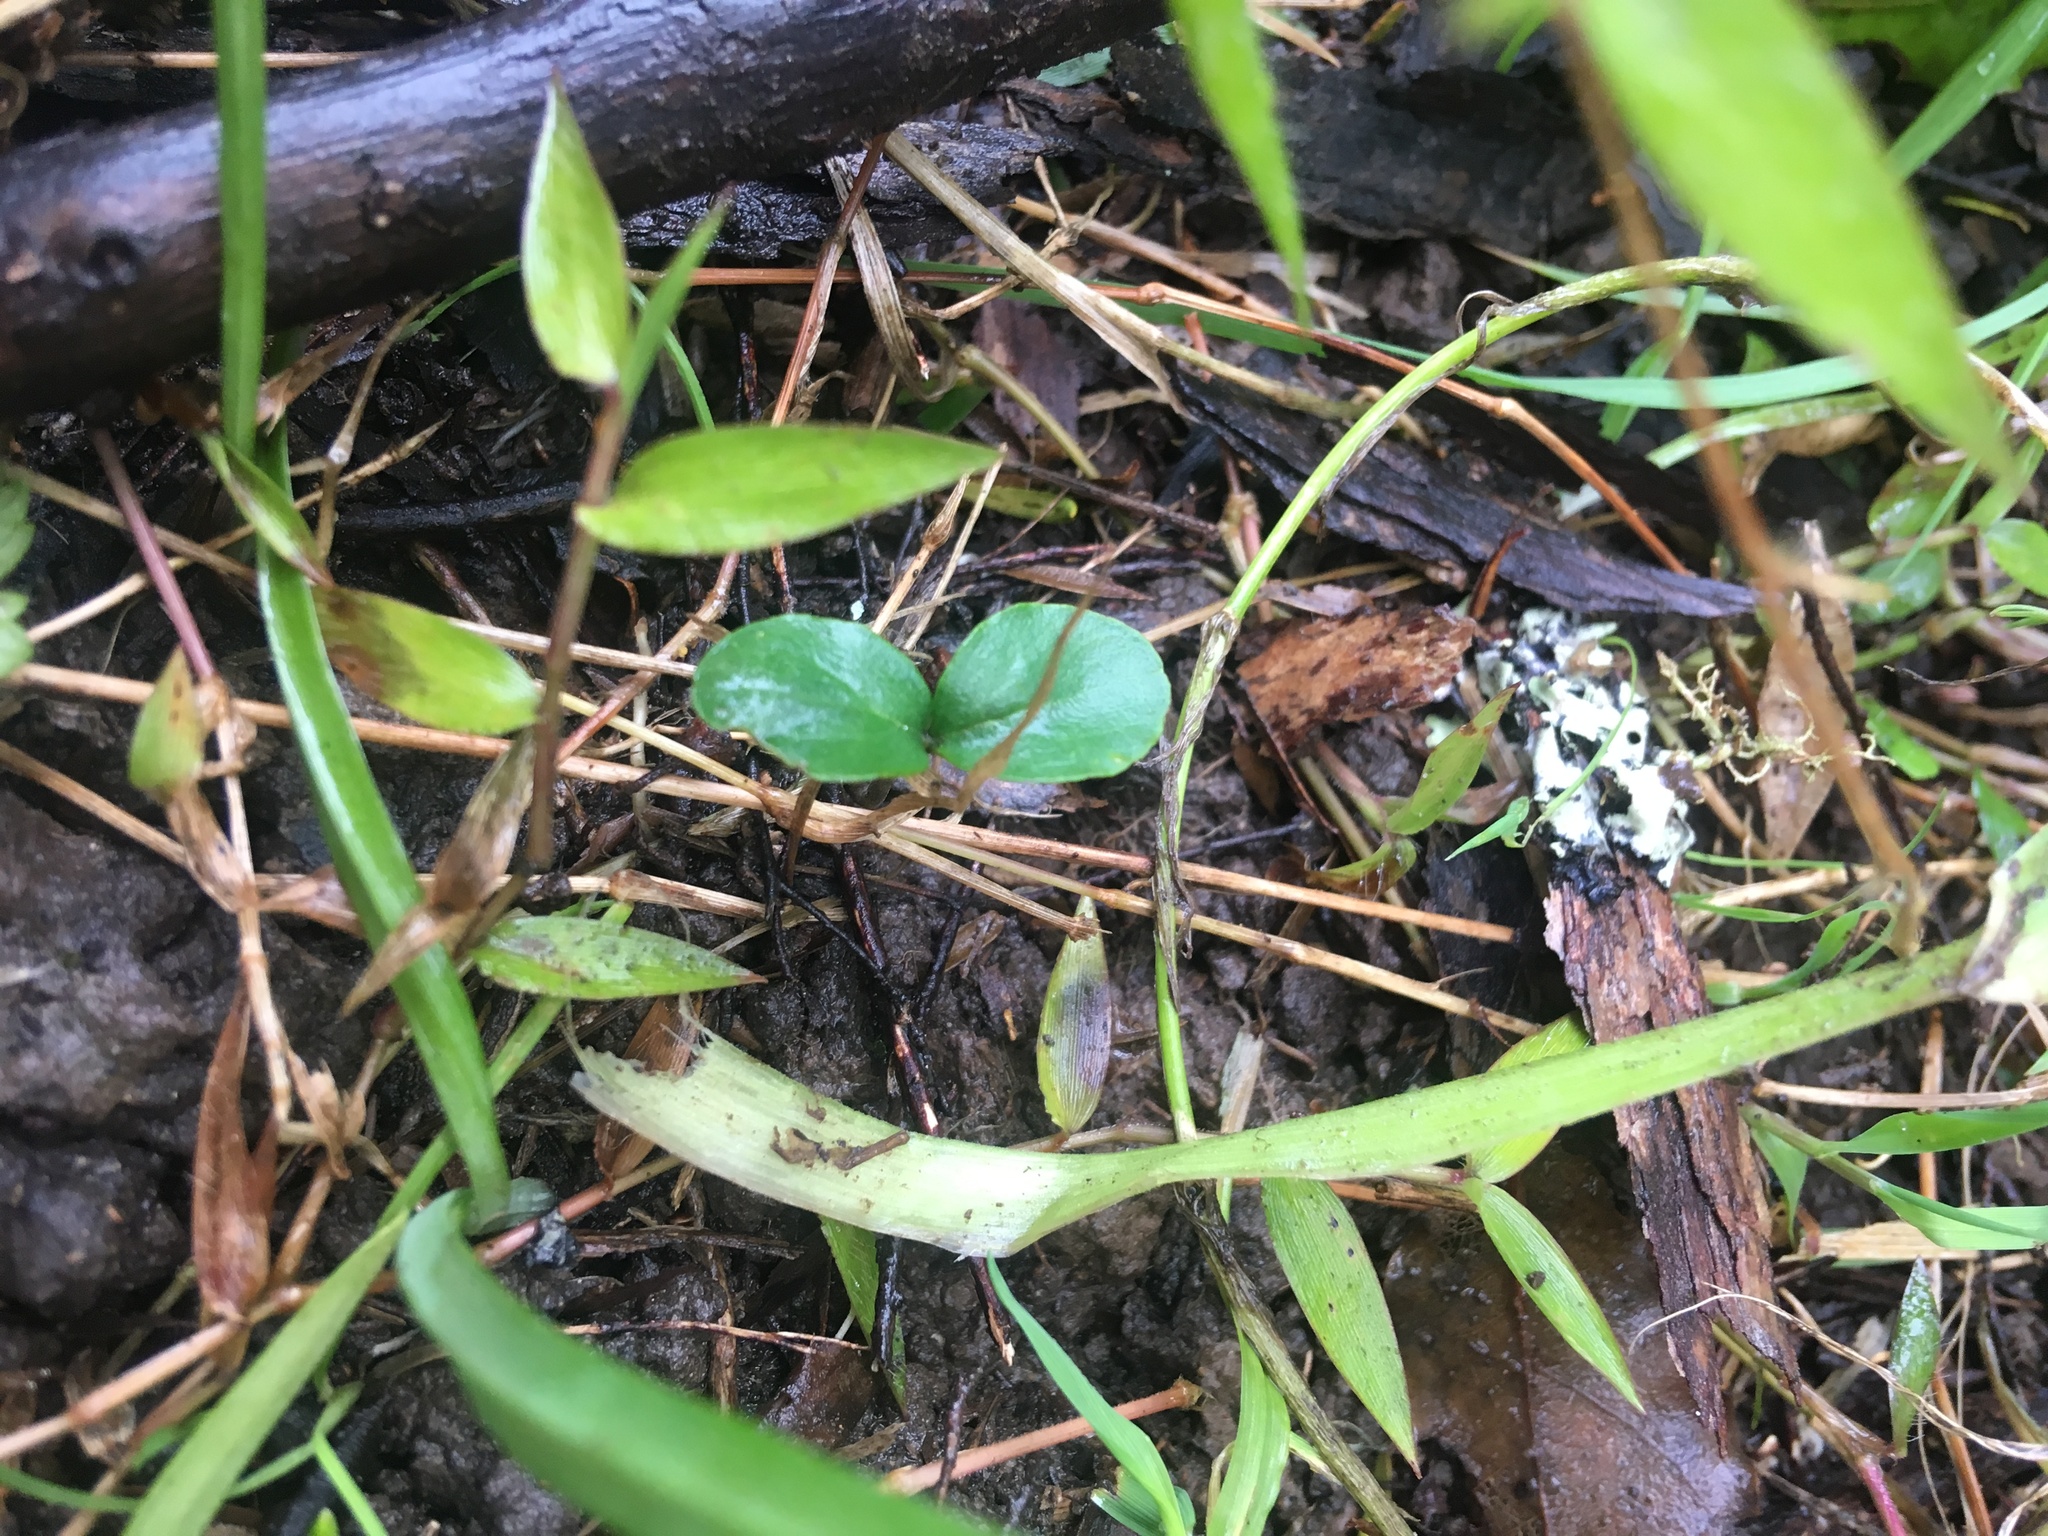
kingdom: Plantae
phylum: Tracheophyta
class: Magnoliopsida
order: Lamiales
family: Oleaceae
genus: Ligustrum
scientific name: Ligustrum sinense
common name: Chinese privet
